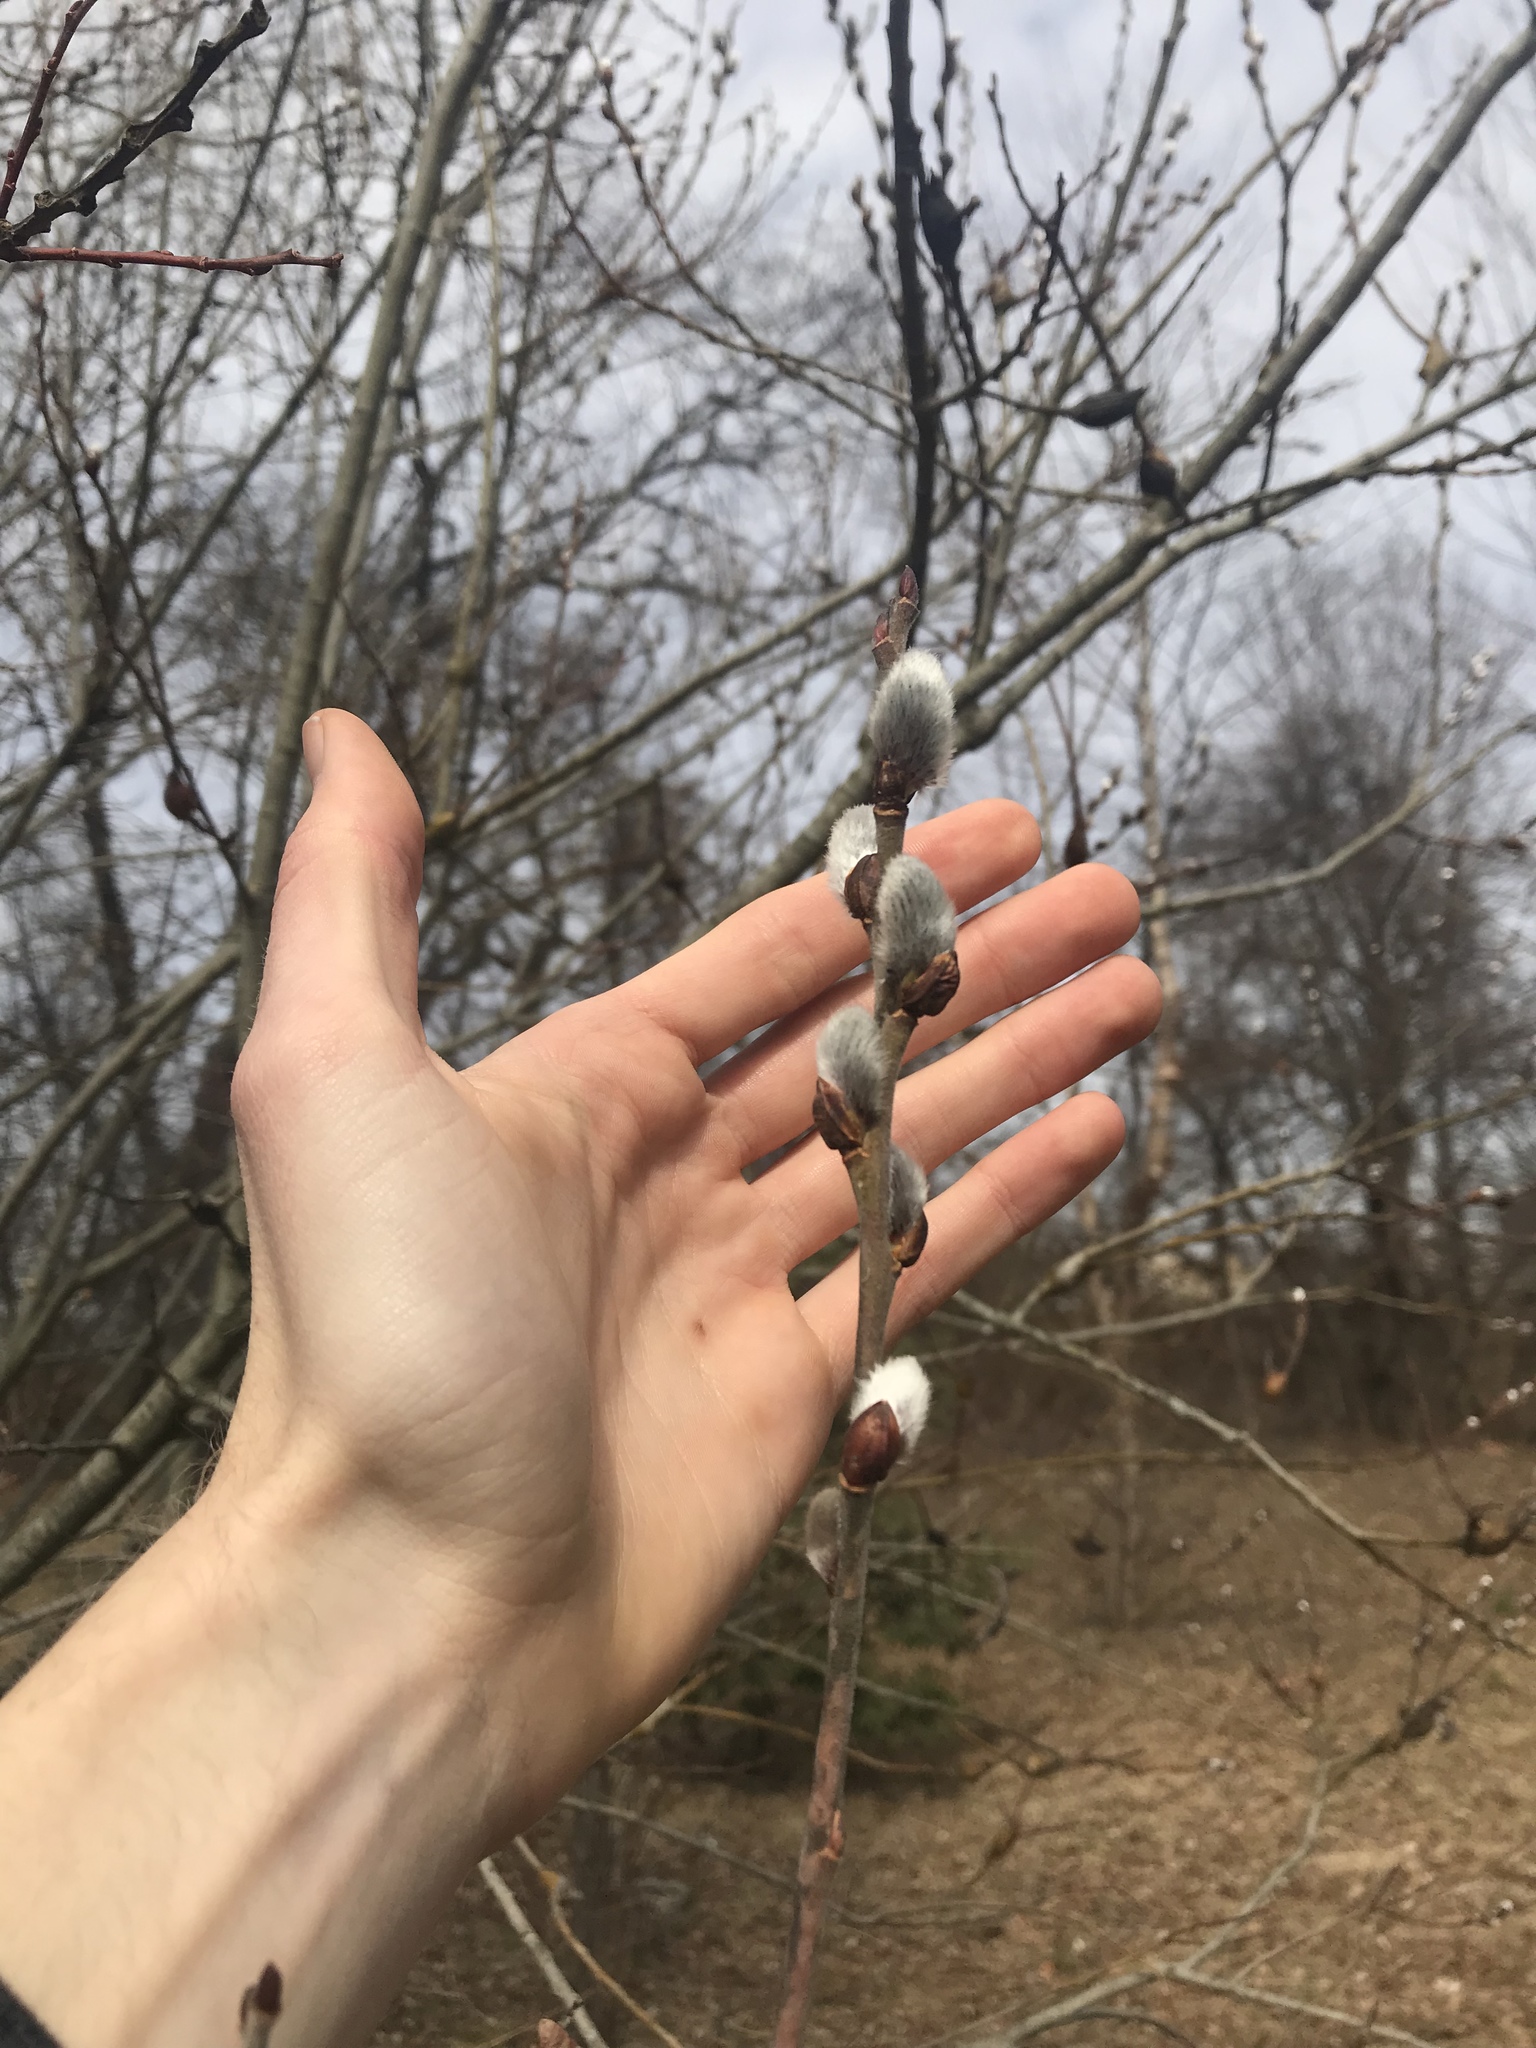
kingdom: Plantae
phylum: Tracheophyta
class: Magnoliopsida
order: Malpighiales
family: Salicaceae
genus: Salix
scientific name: Salix discolor
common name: Glaucous willow
